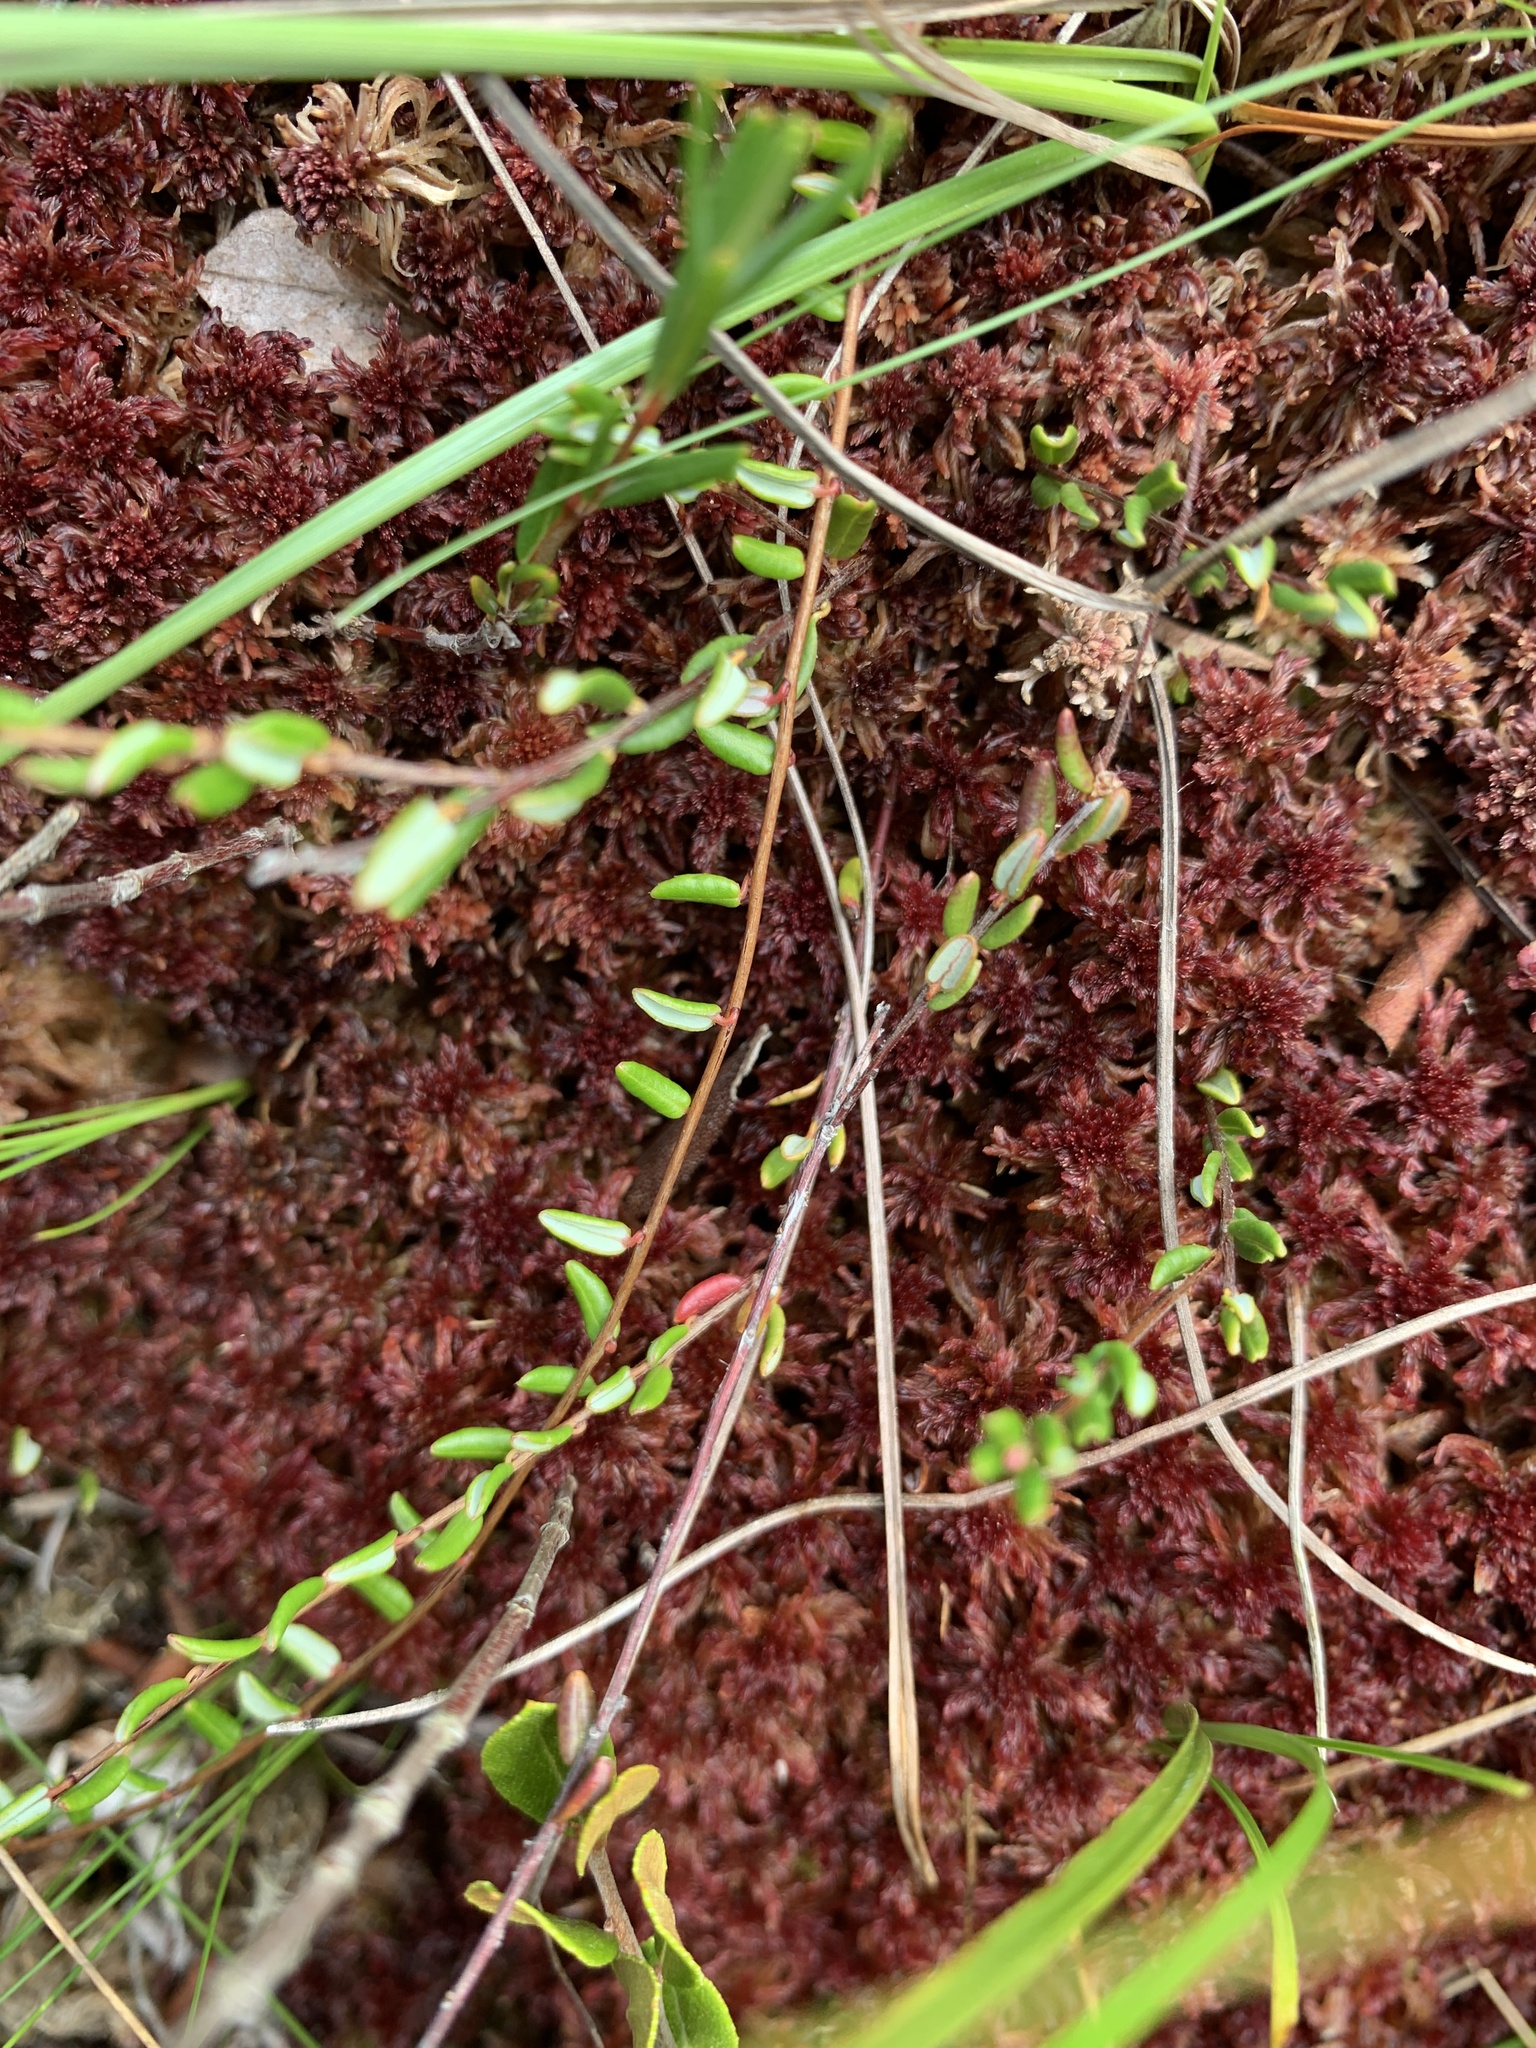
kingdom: Plantae
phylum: Tracheophyta
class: Magnoliopsida
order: Ericales
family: Ericaceae
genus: Vaccinium
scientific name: Vaccinium oxycoccos
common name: Cranberry
